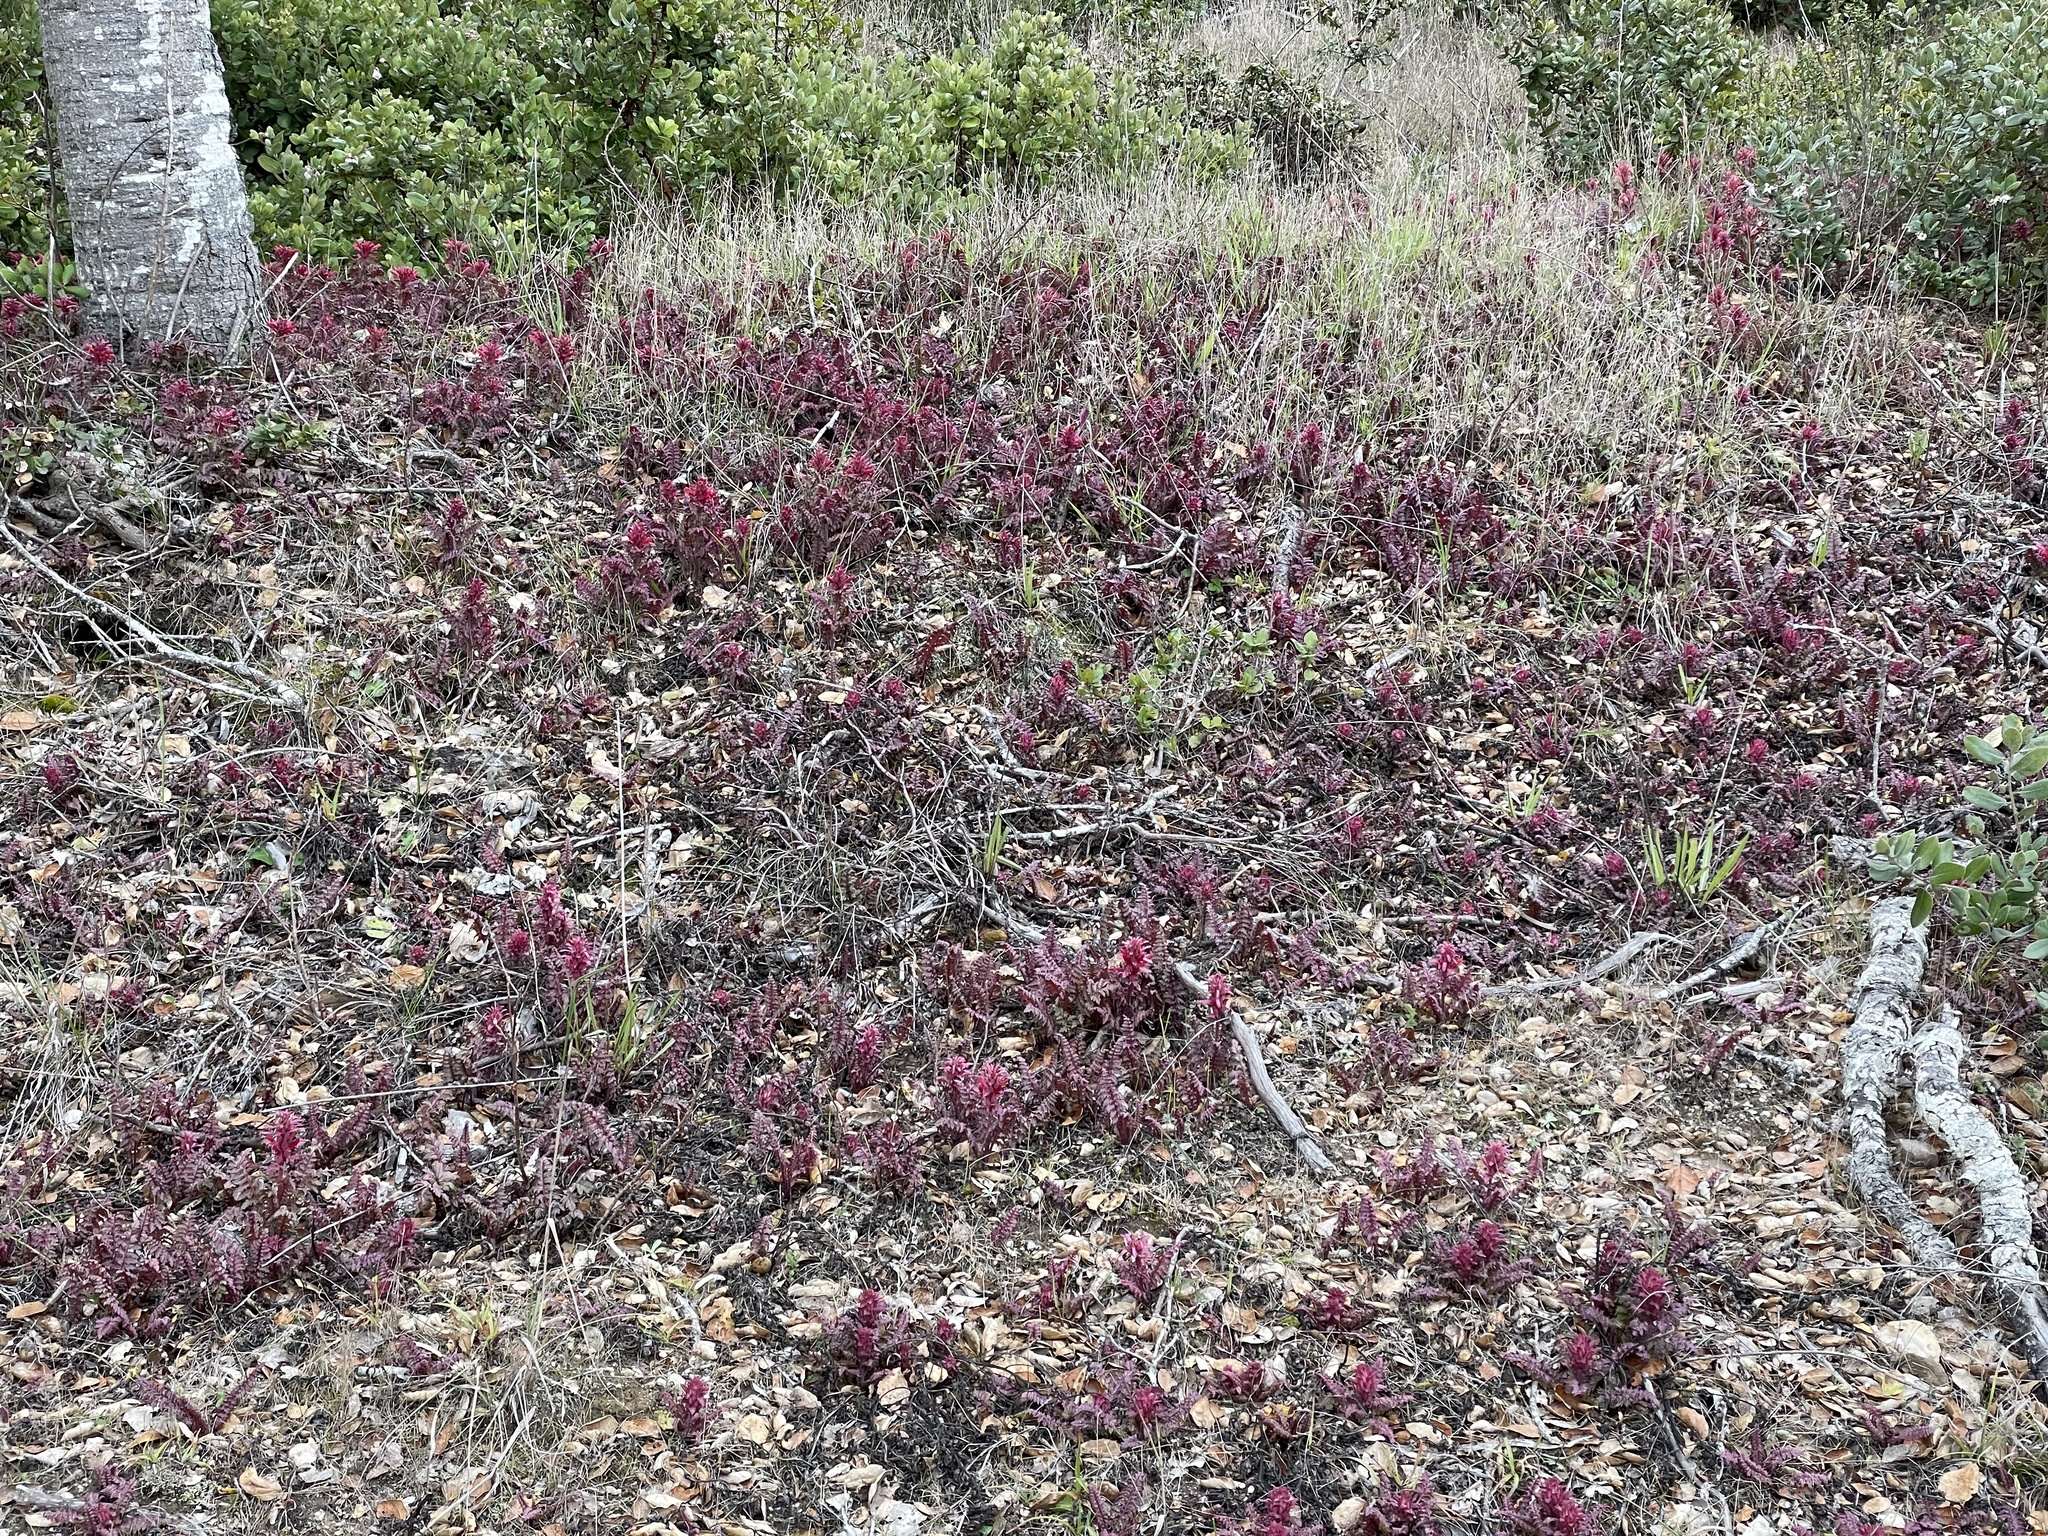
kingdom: Plantae
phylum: Tracheophyta
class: Magnoliopsida
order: Lamiales
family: Orobanchaceae
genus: Pedicularis
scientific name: Pedicularis densiflora
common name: Indian warrior
